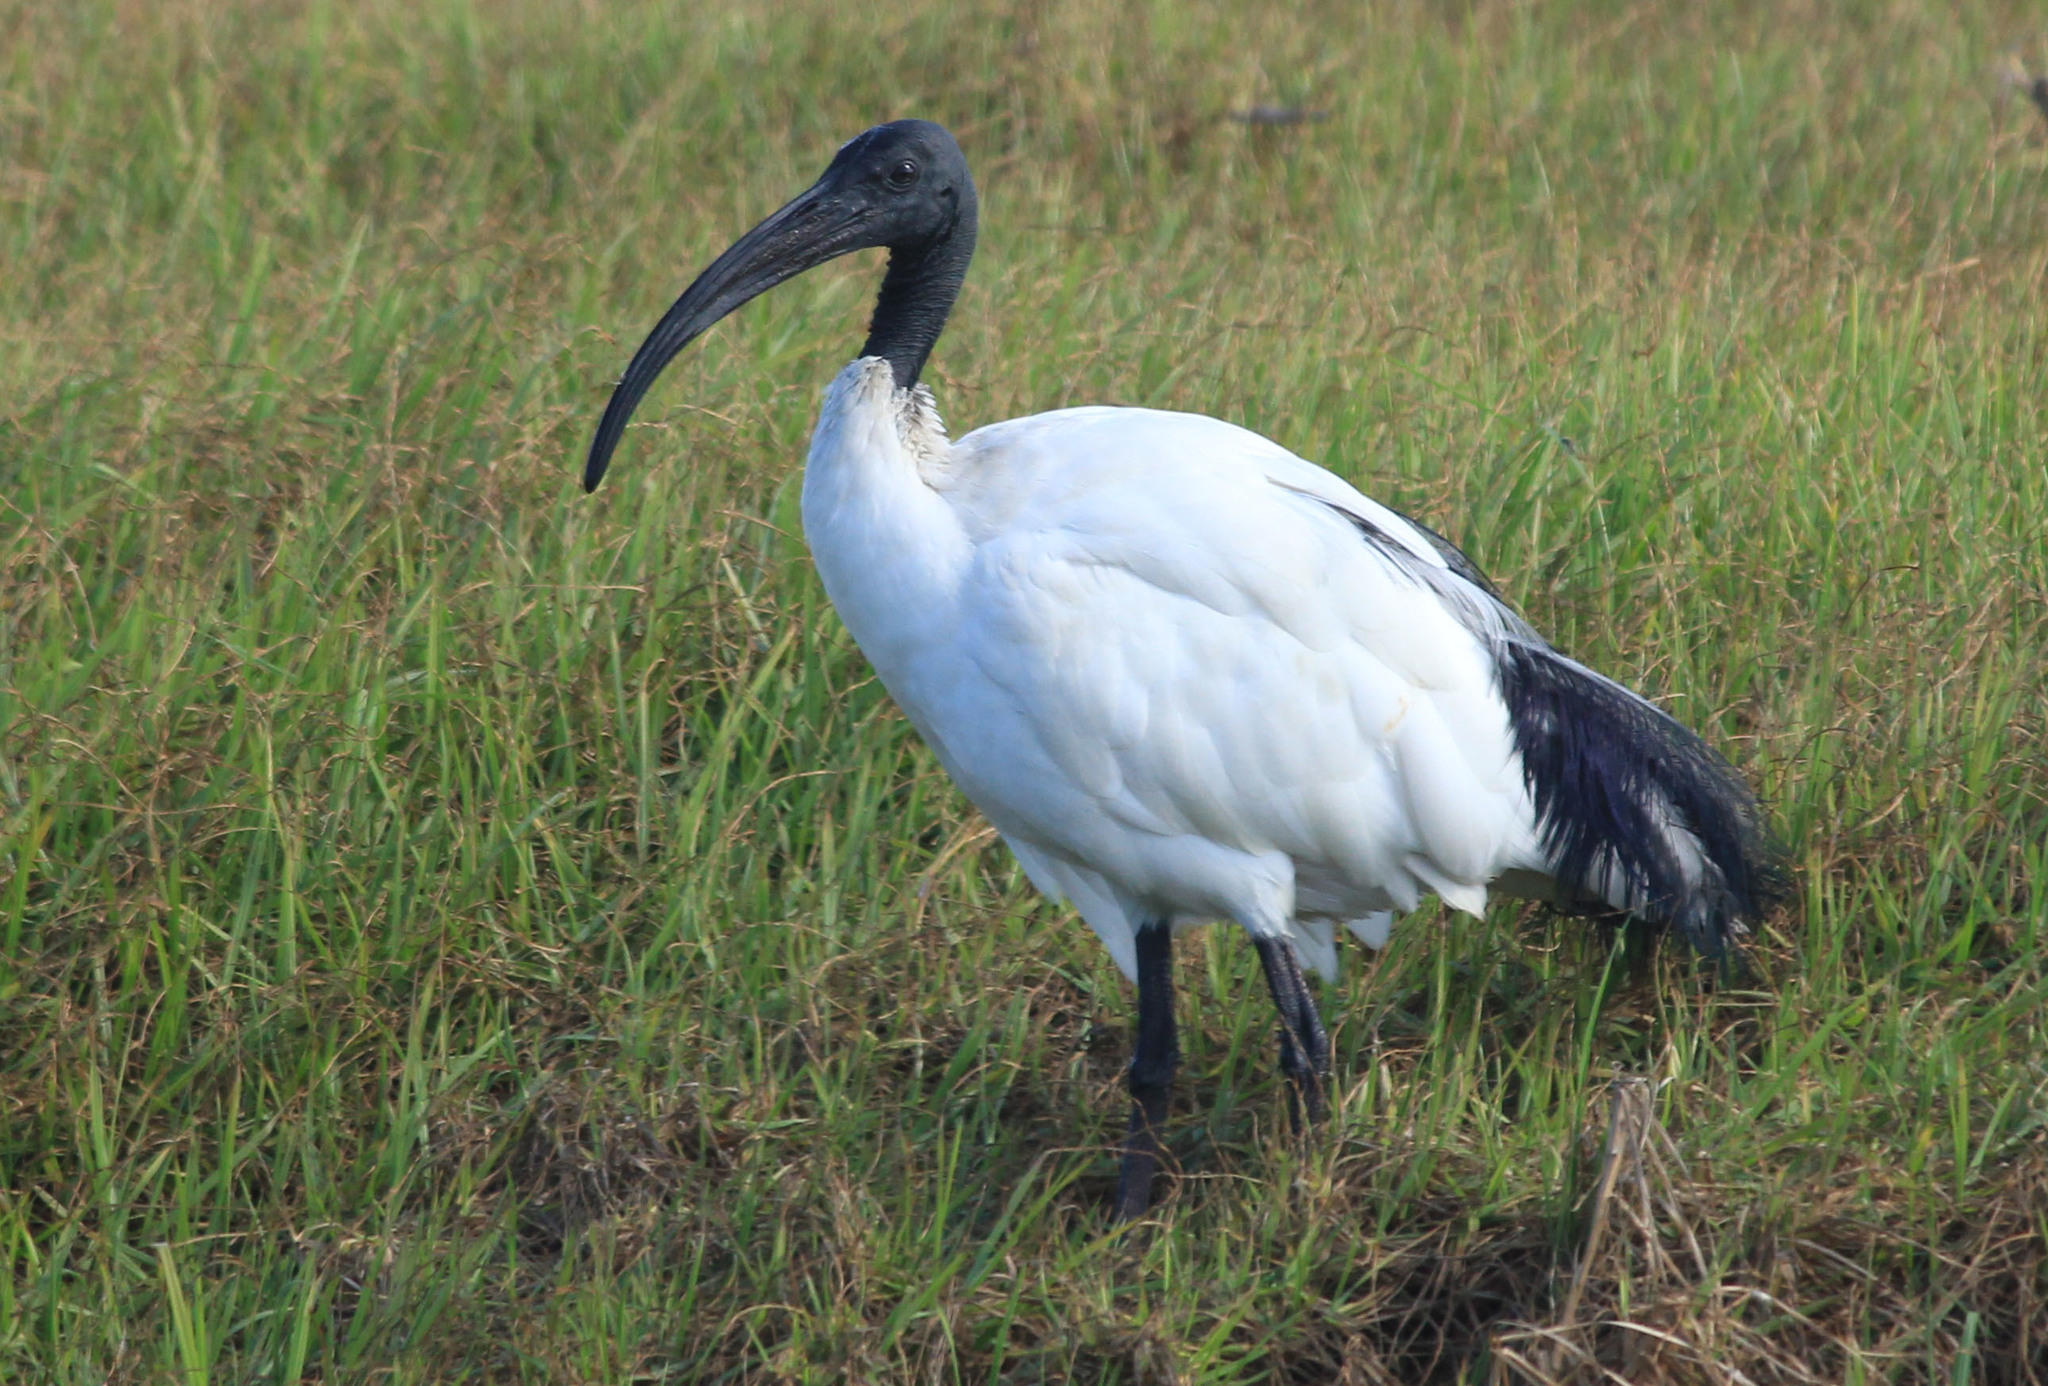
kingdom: Animalia
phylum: Chordata
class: Aves
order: Pelecaniformes
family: Threskiornithidae
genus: Threskiornis
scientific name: Threskiornis aethiopicus
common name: Sacred ibis
